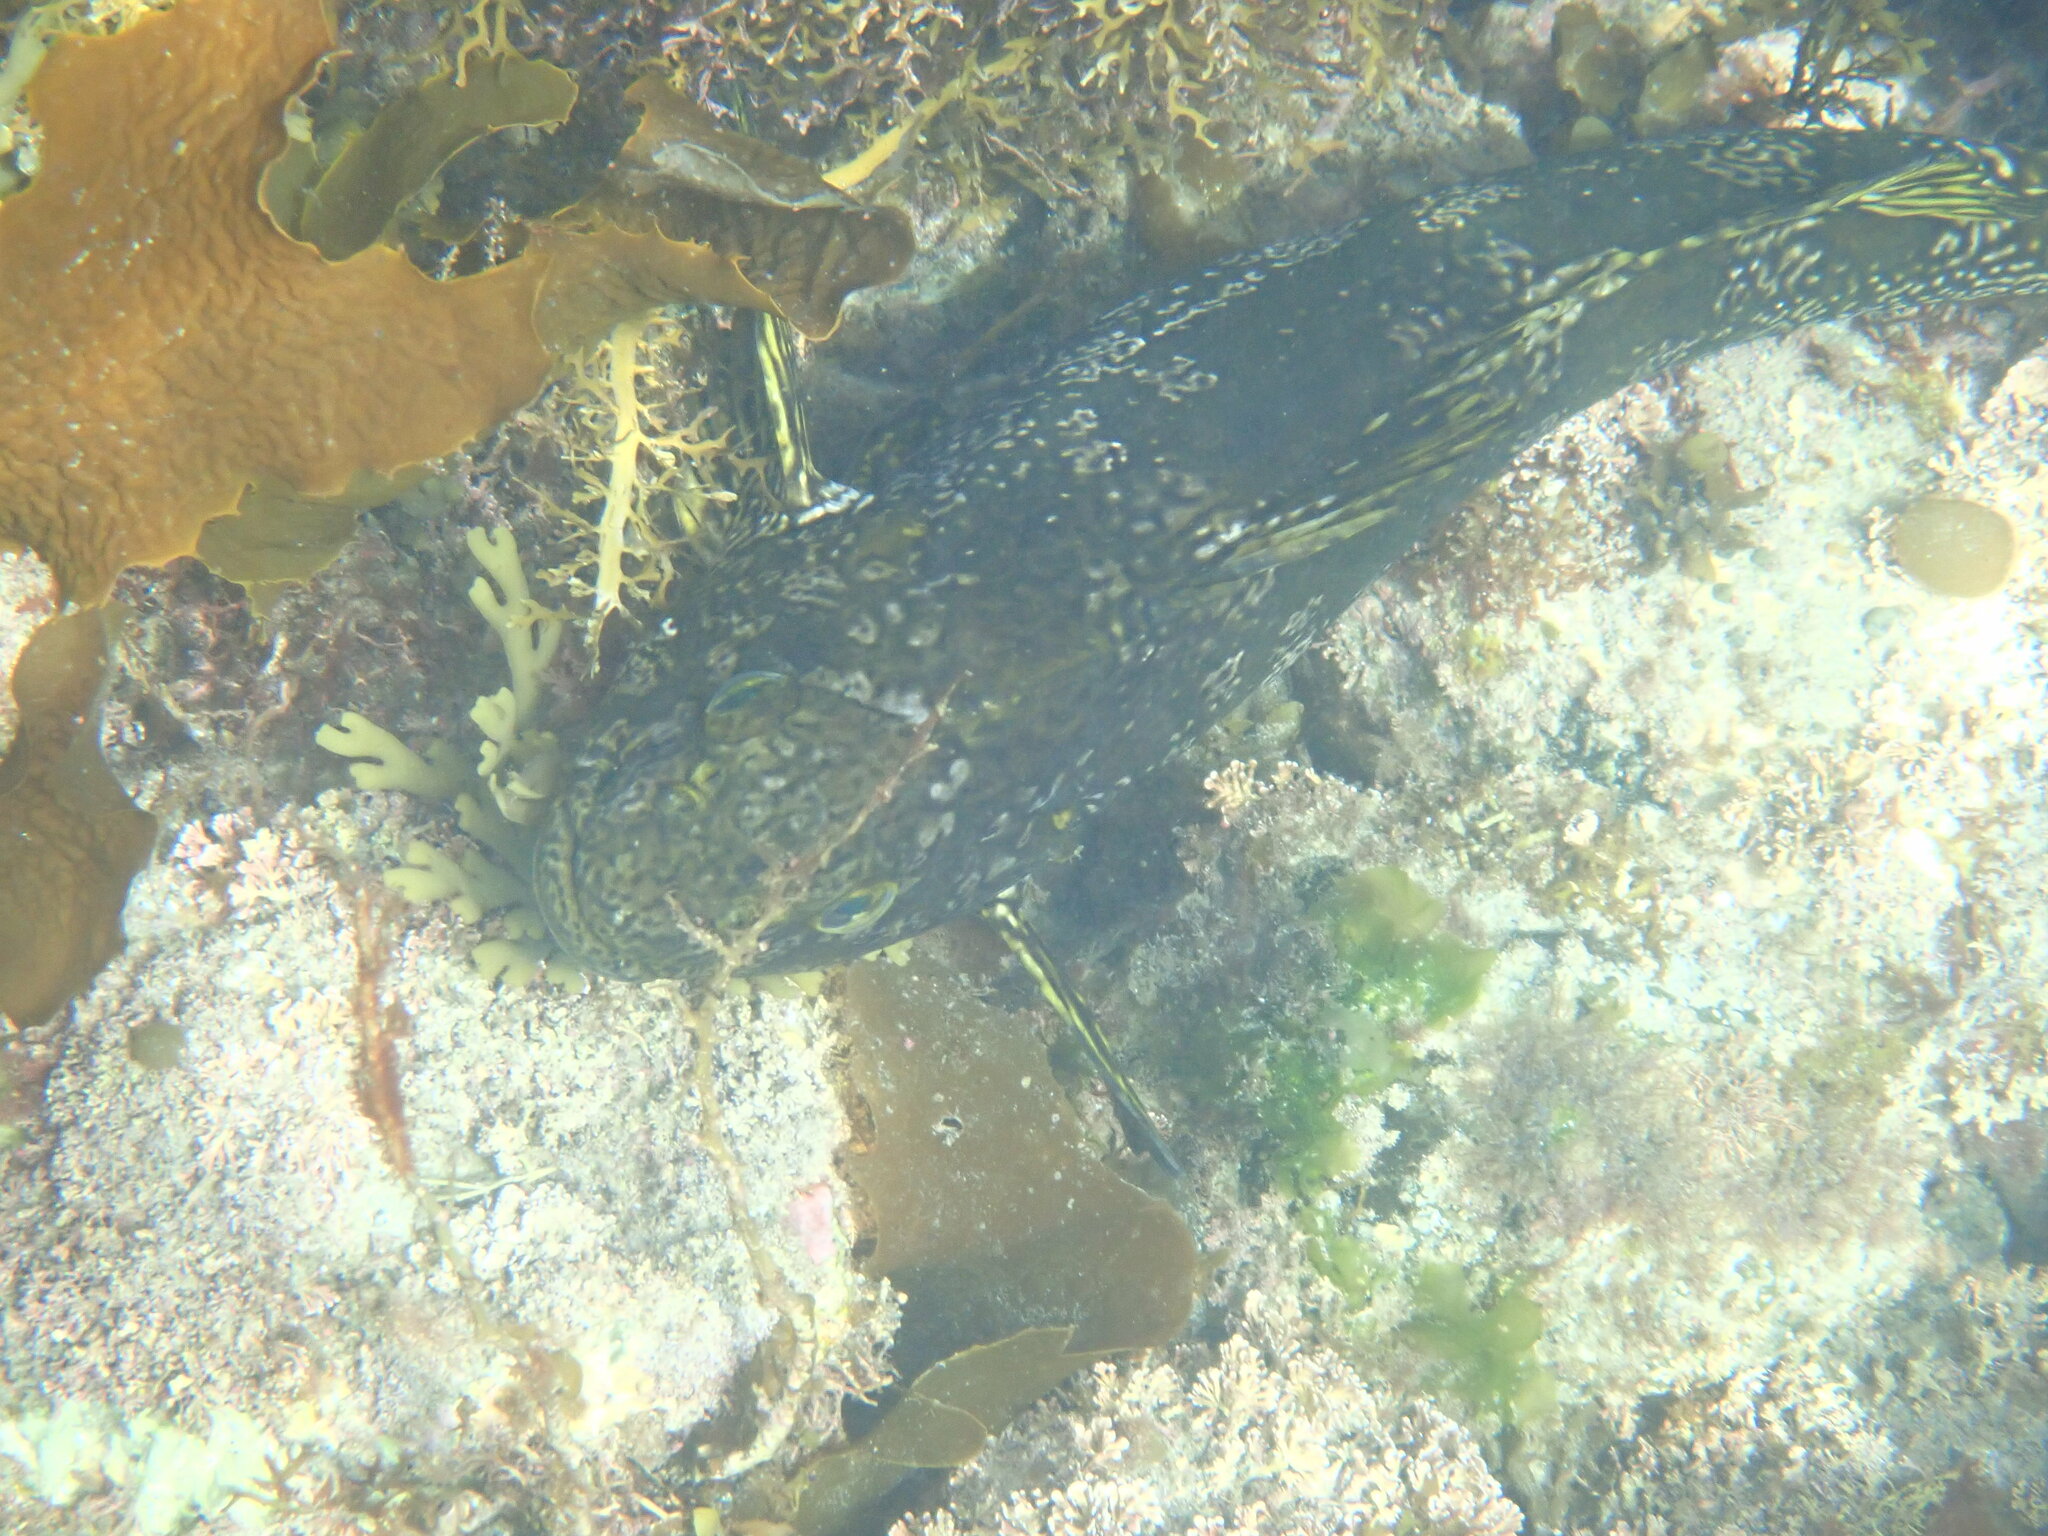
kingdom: Animalia
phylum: Chordata
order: Perciformes
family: Aplodactylidae
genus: Aplodactylus
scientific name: Aplodactylus arctidens
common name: Marblefish
